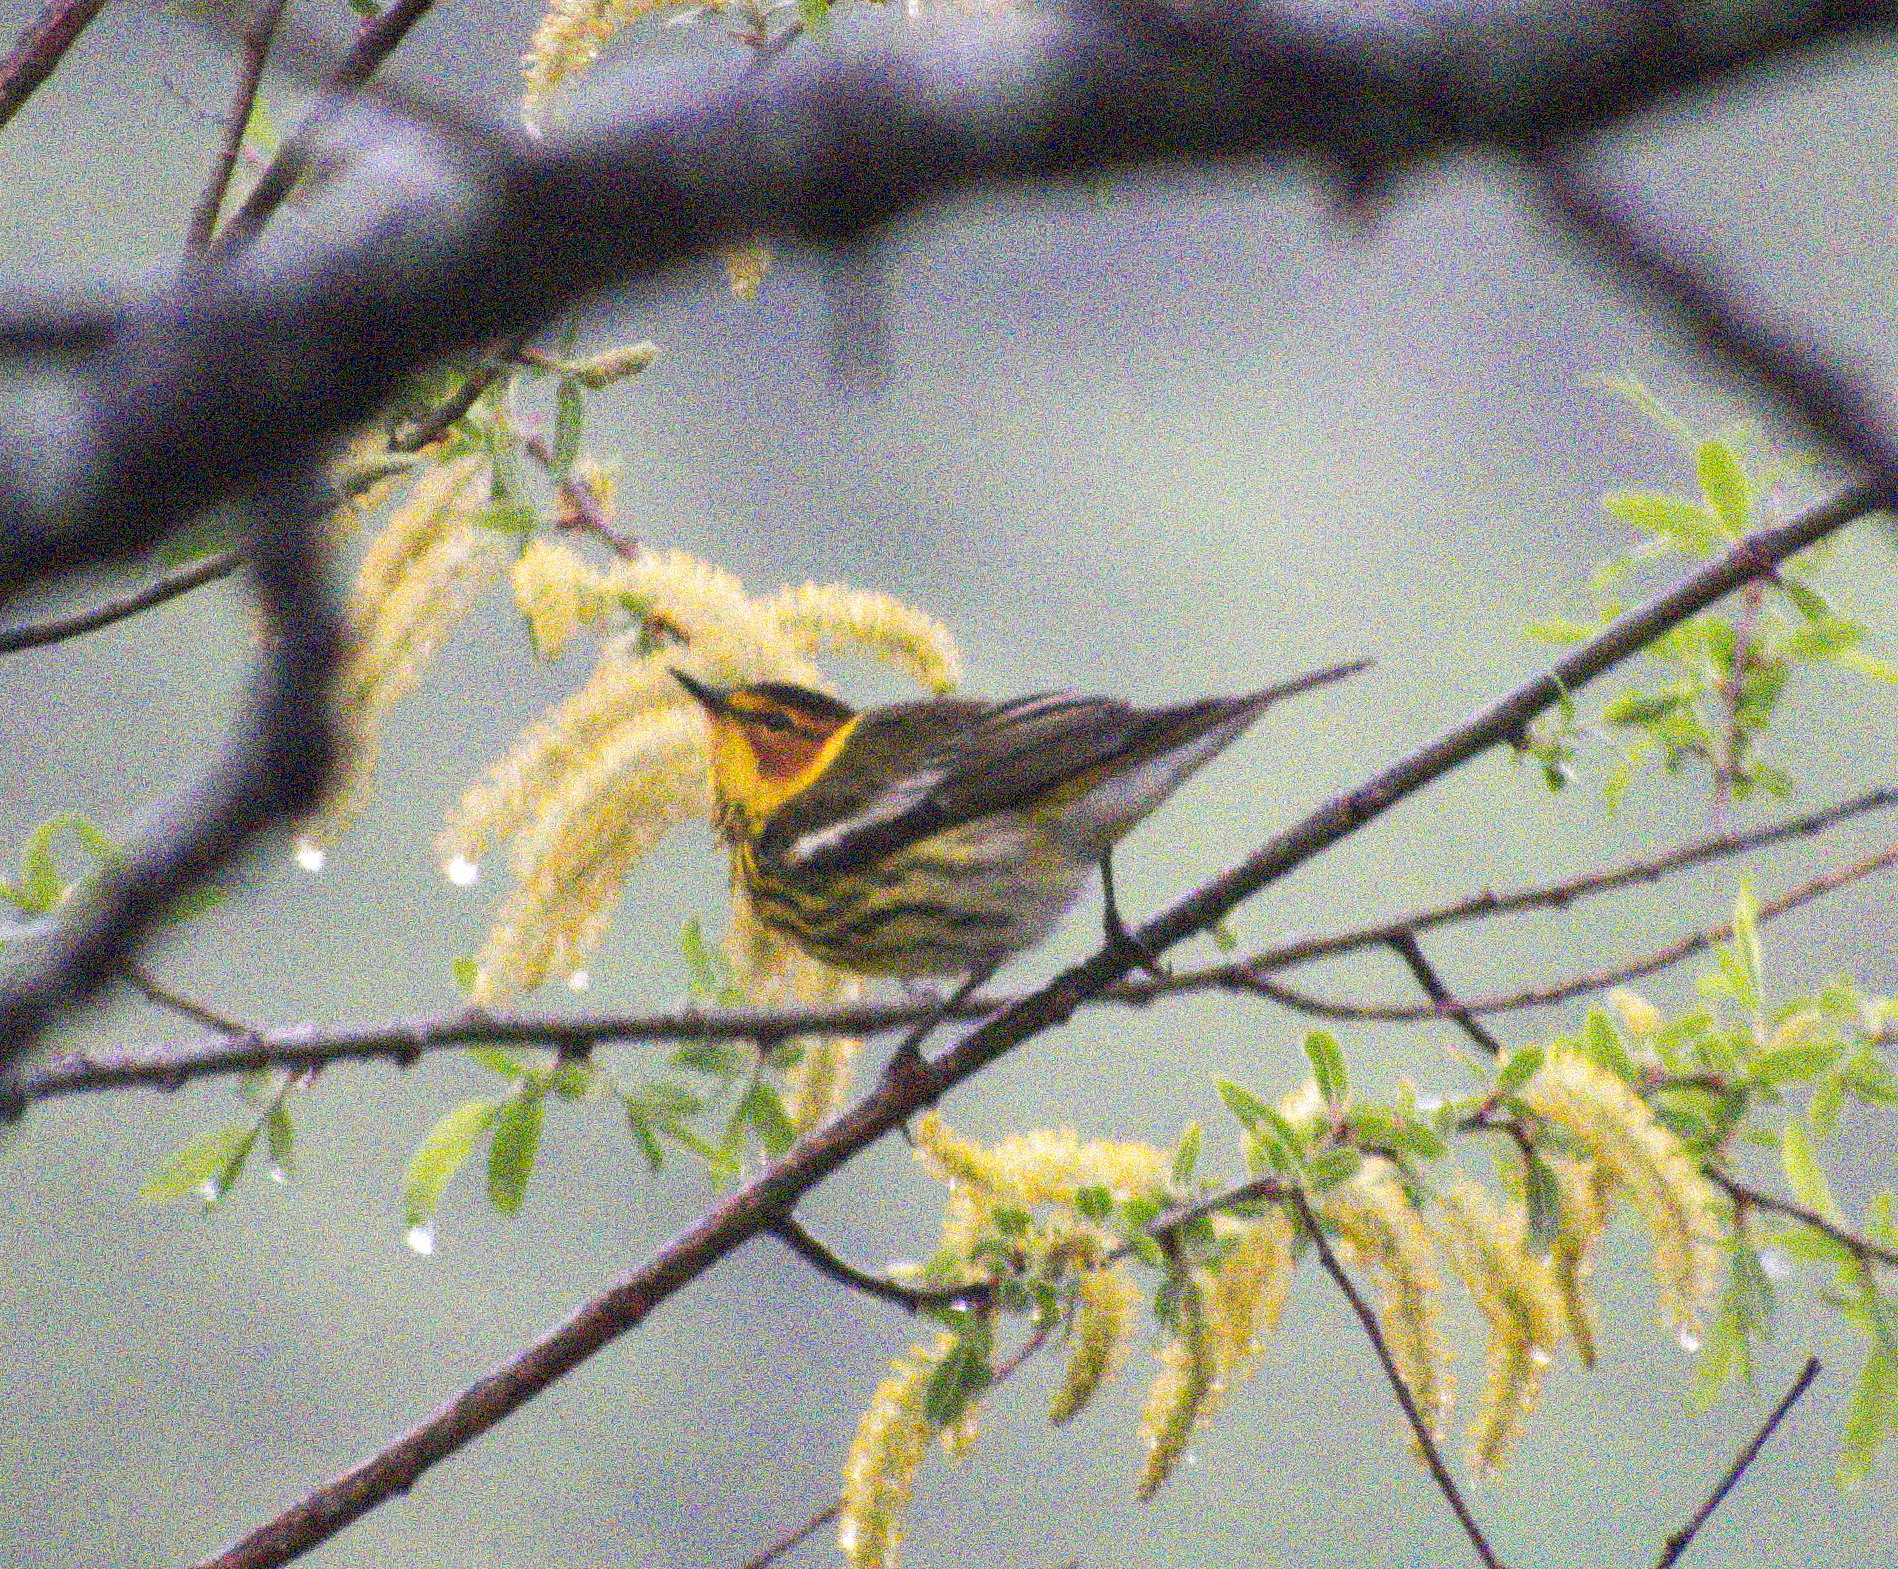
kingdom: Animalia
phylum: Chordata
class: Aves
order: Passeriformes
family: Parulidae
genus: Setophaga
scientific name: Setophaga tigrina
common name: Cape may warbler
